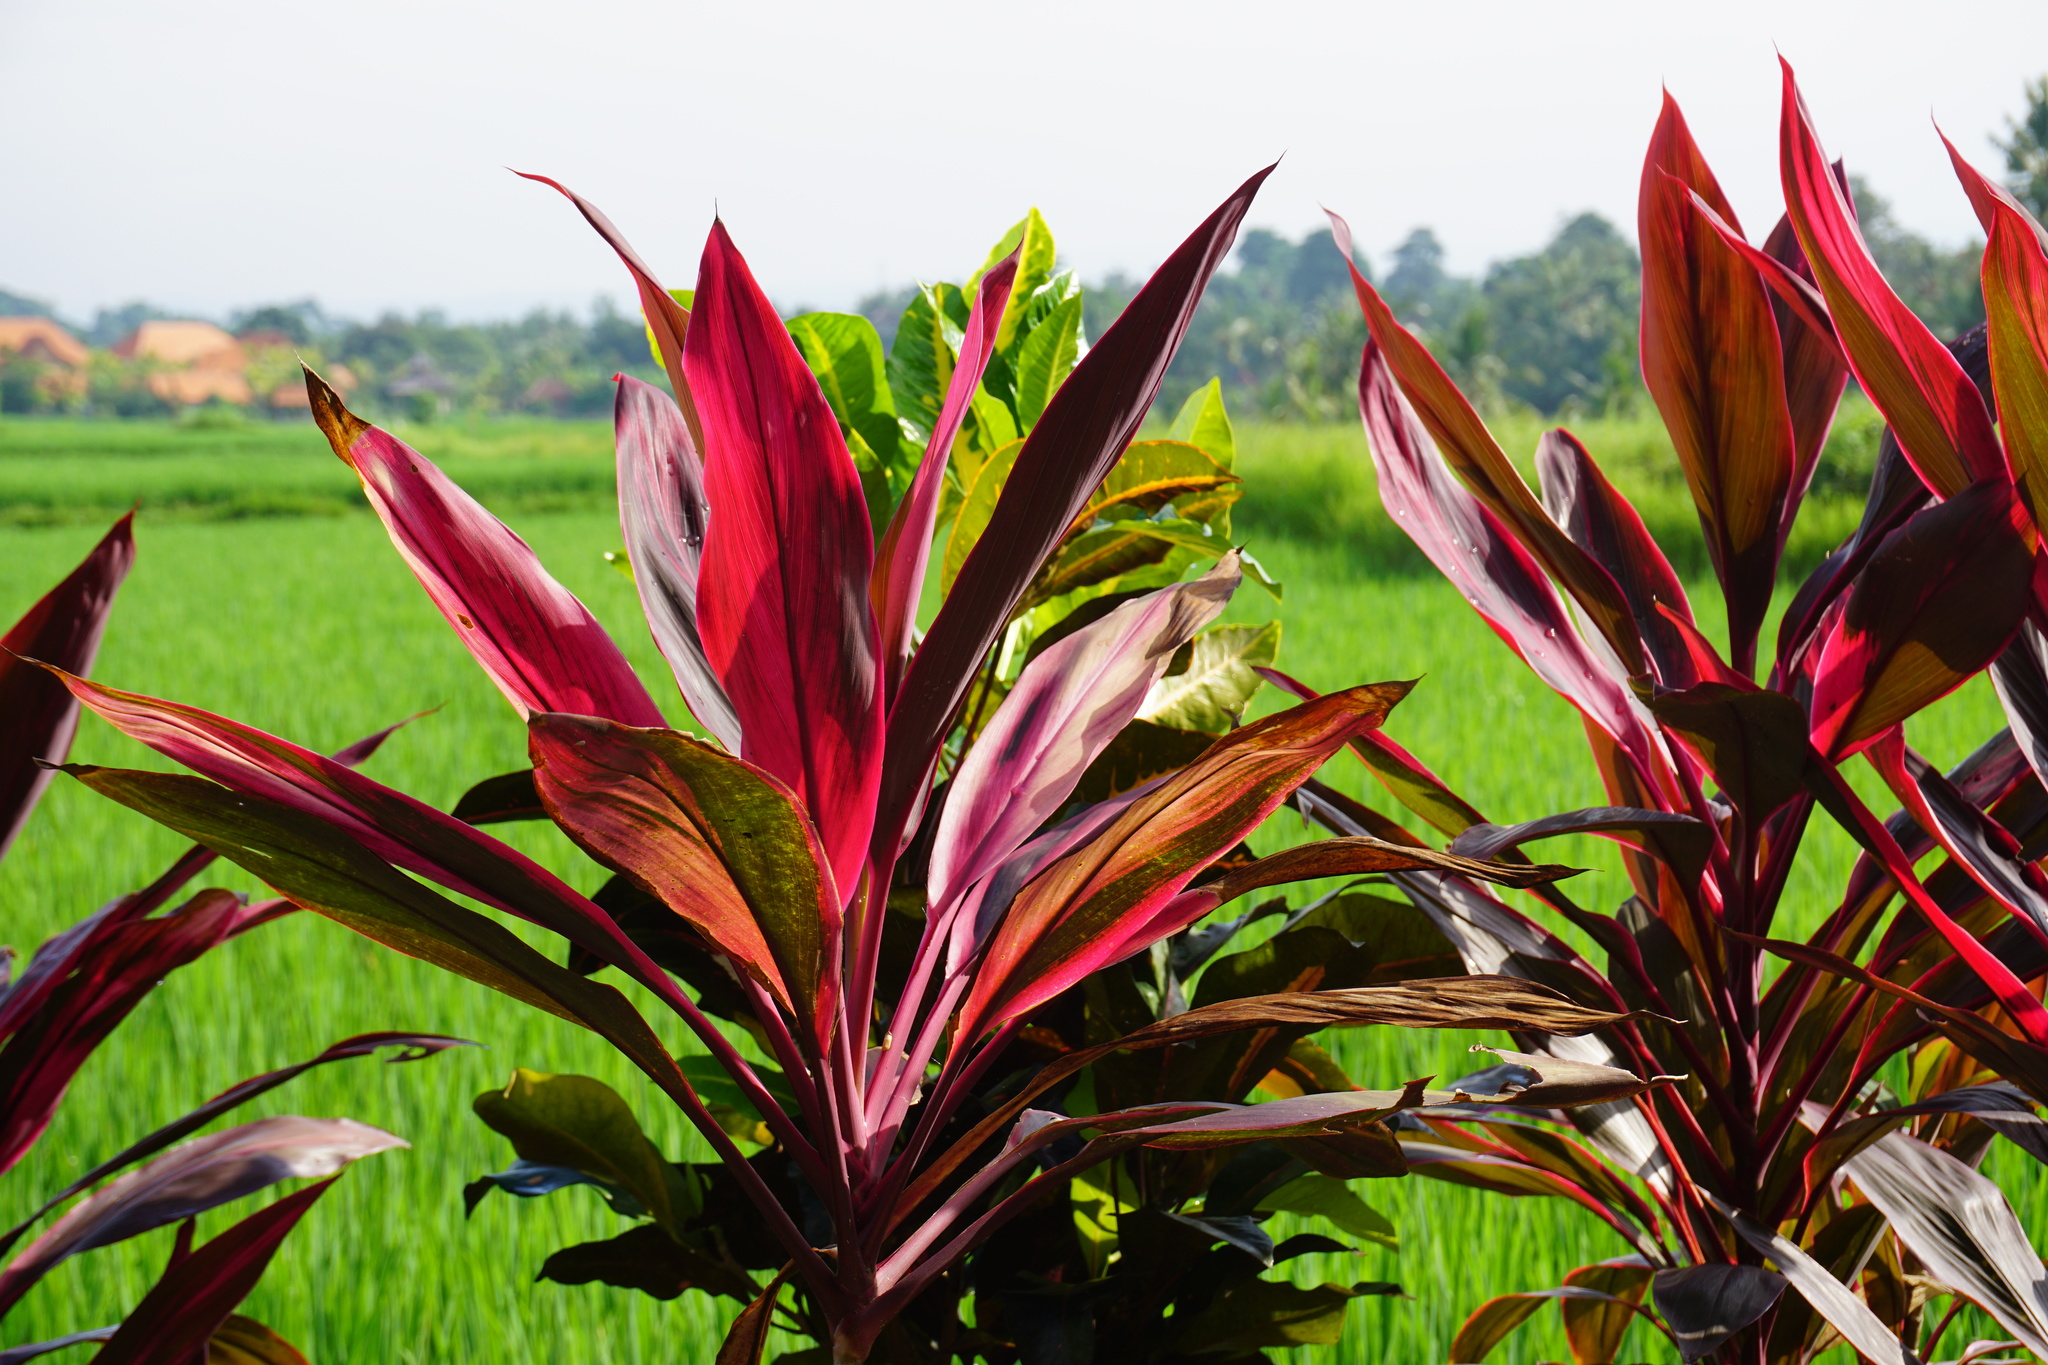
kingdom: Plantae
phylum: Tracheophyta
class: Liliopsida
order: Asparagales
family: Asparagaceae
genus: Cordyline
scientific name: Cordyline fruticosa
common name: Good-luck-plant
